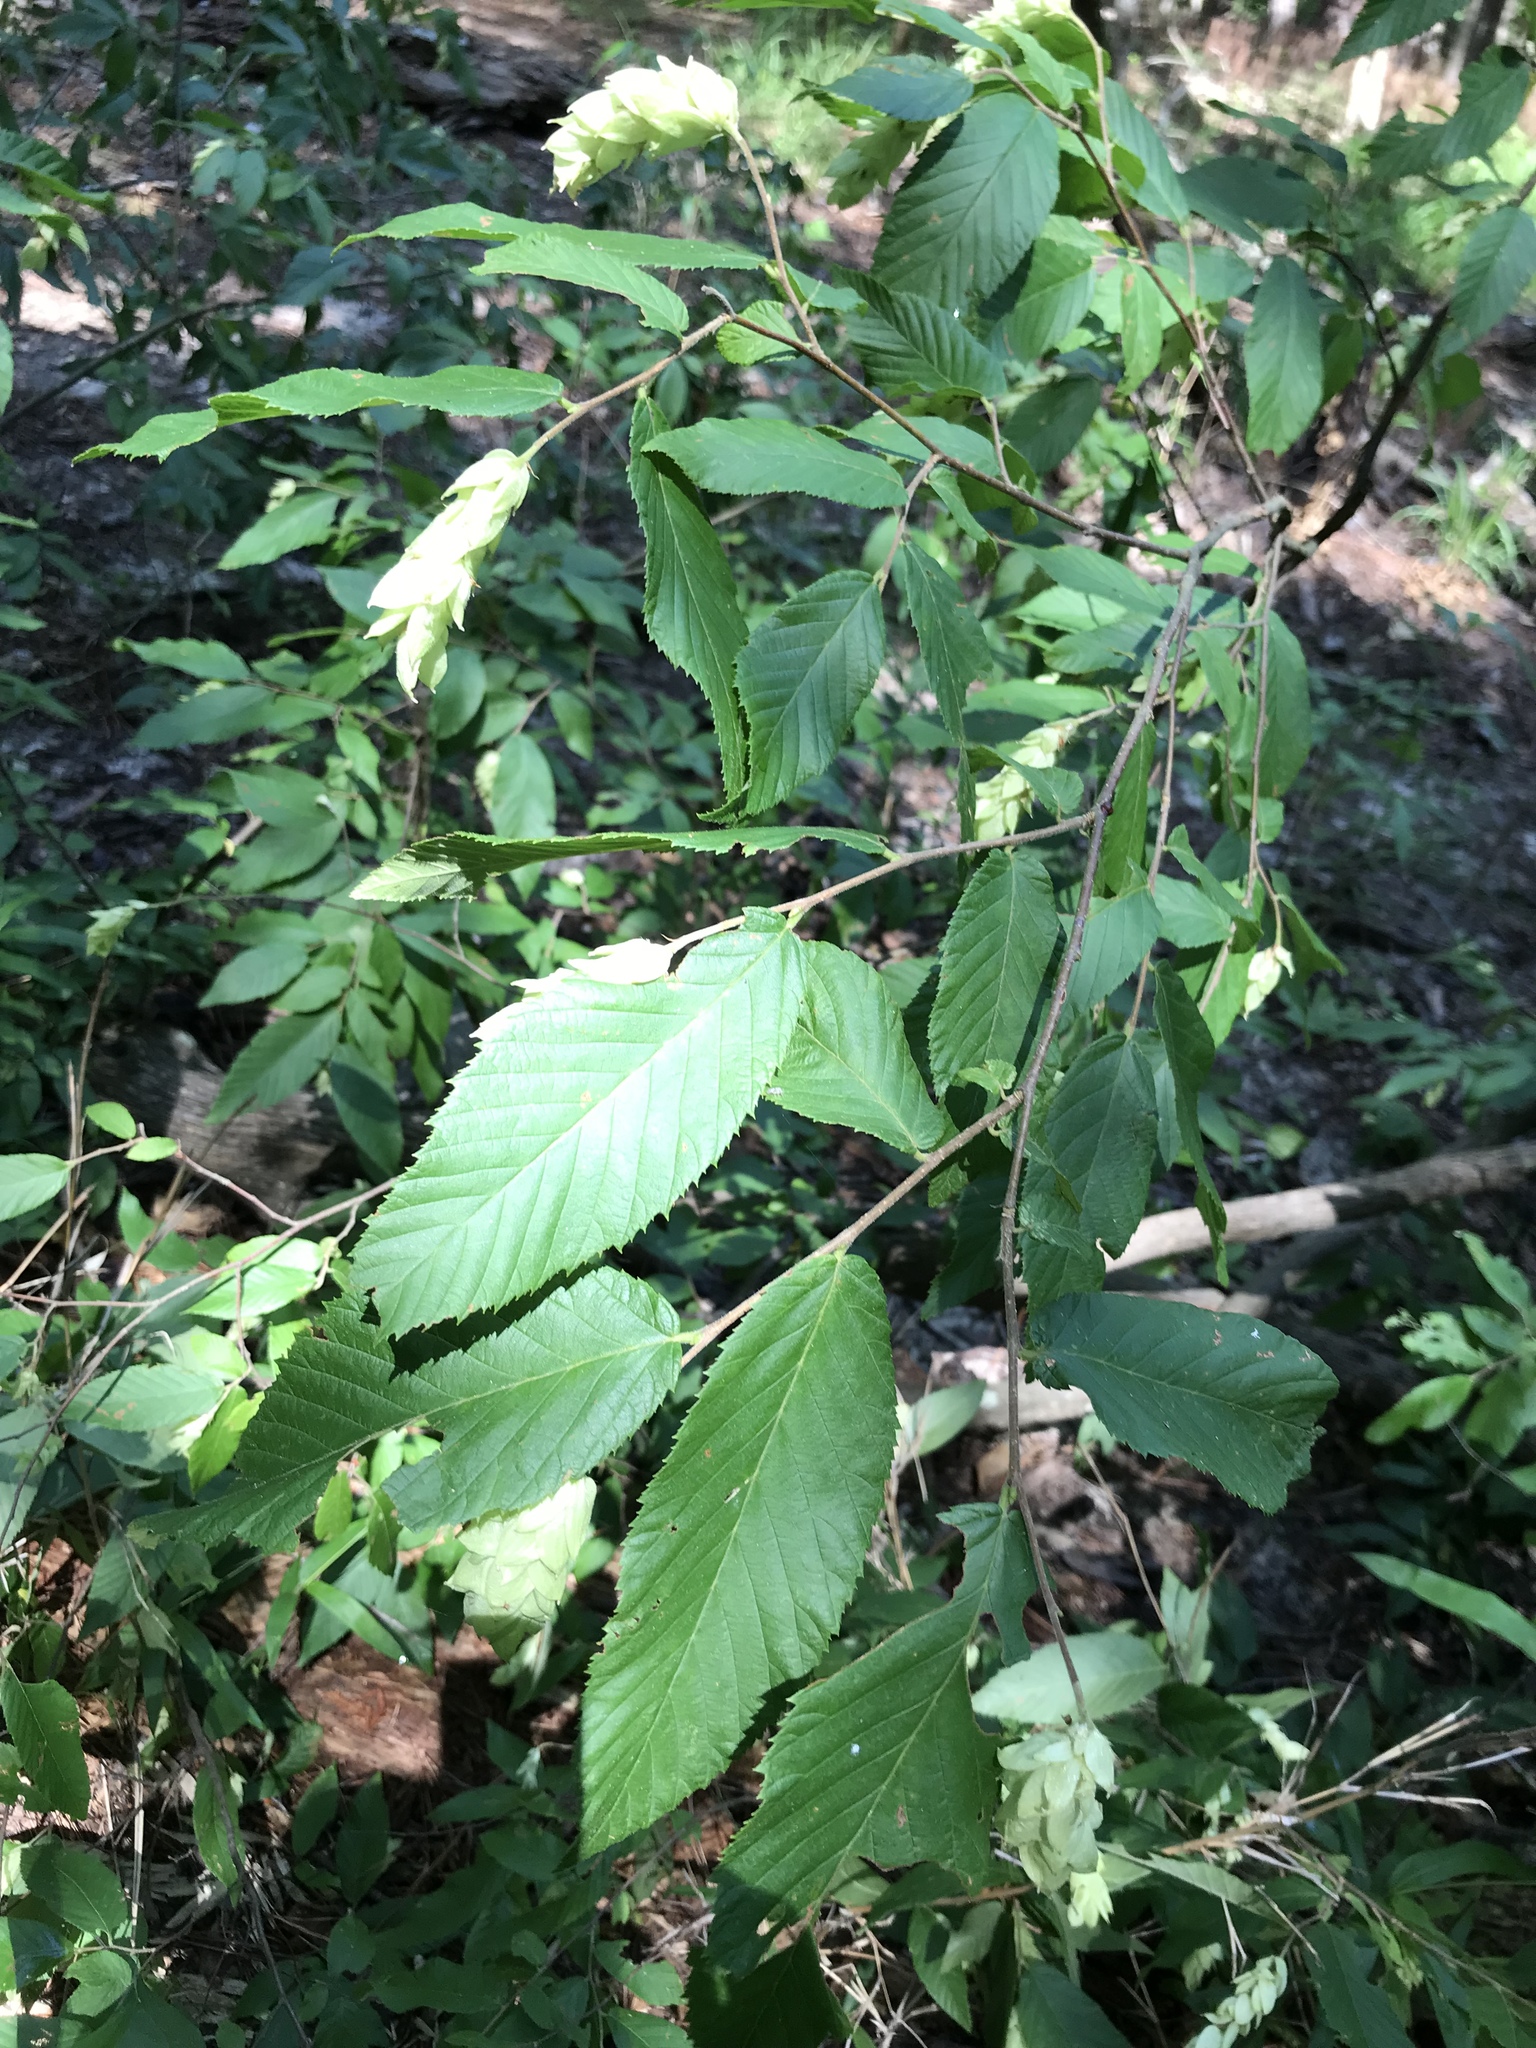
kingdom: Plantae
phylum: Tracheophyta
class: Magnoliopsida
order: Fagales
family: Betulaceae
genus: Ostrya
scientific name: Ostrya virginiana
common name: Ironwood
